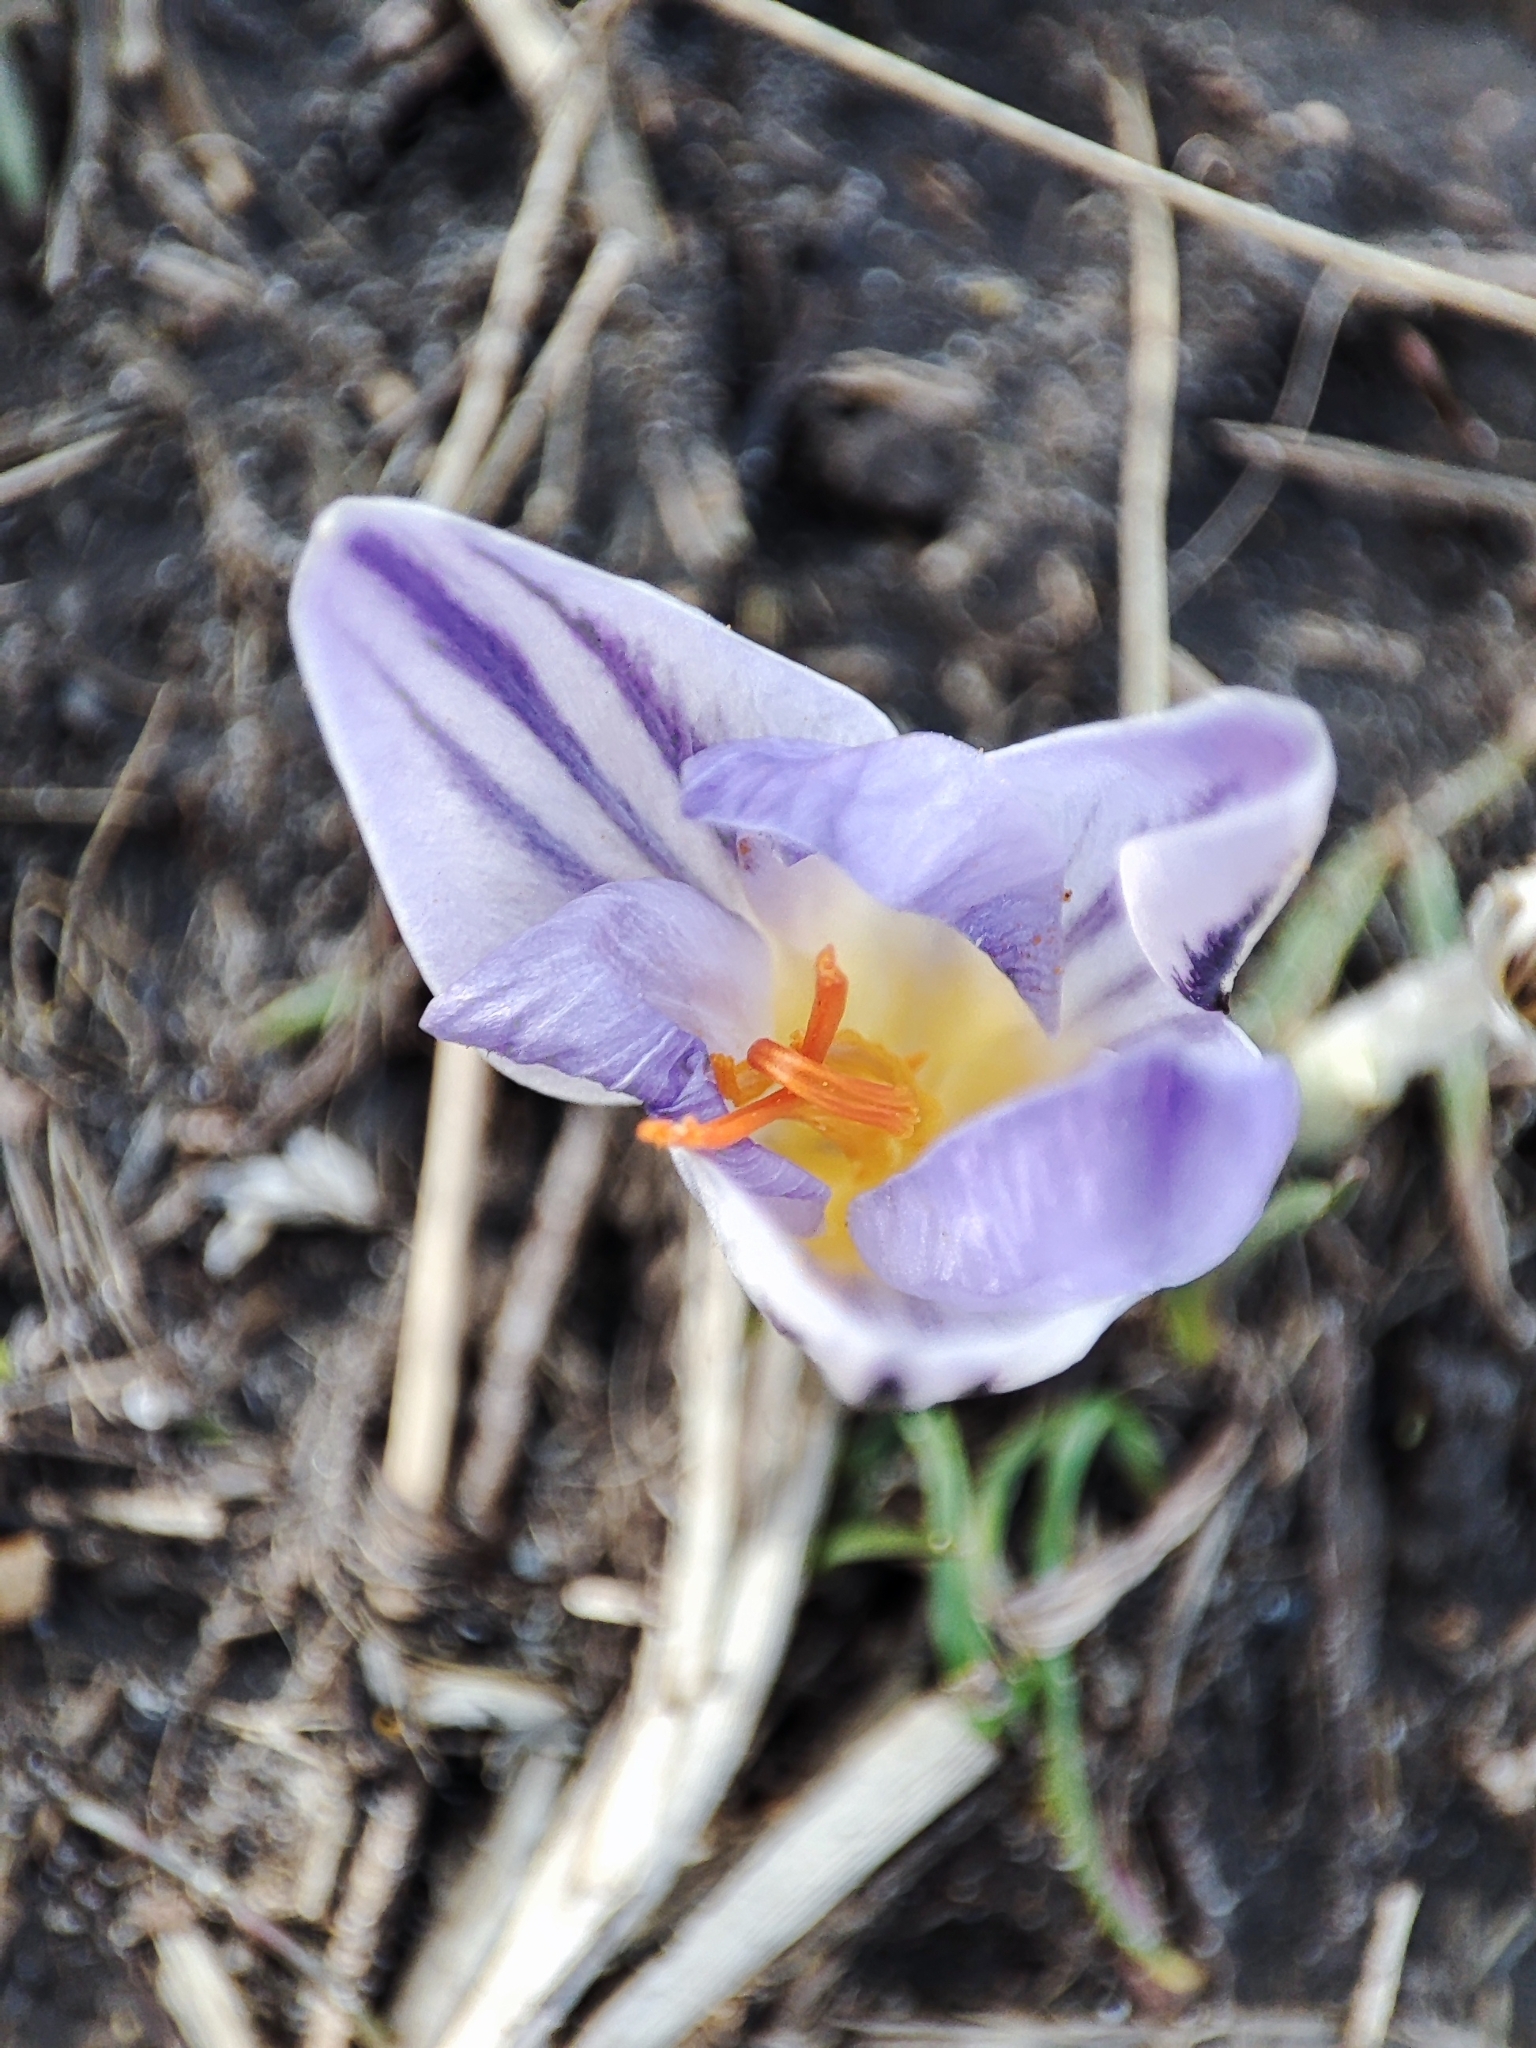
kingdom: Plantae
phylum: Tracheophyta
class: Liliopsida
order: Asparagales
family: Iridaceae
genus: Crocus
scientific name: Crocus reticulatus
